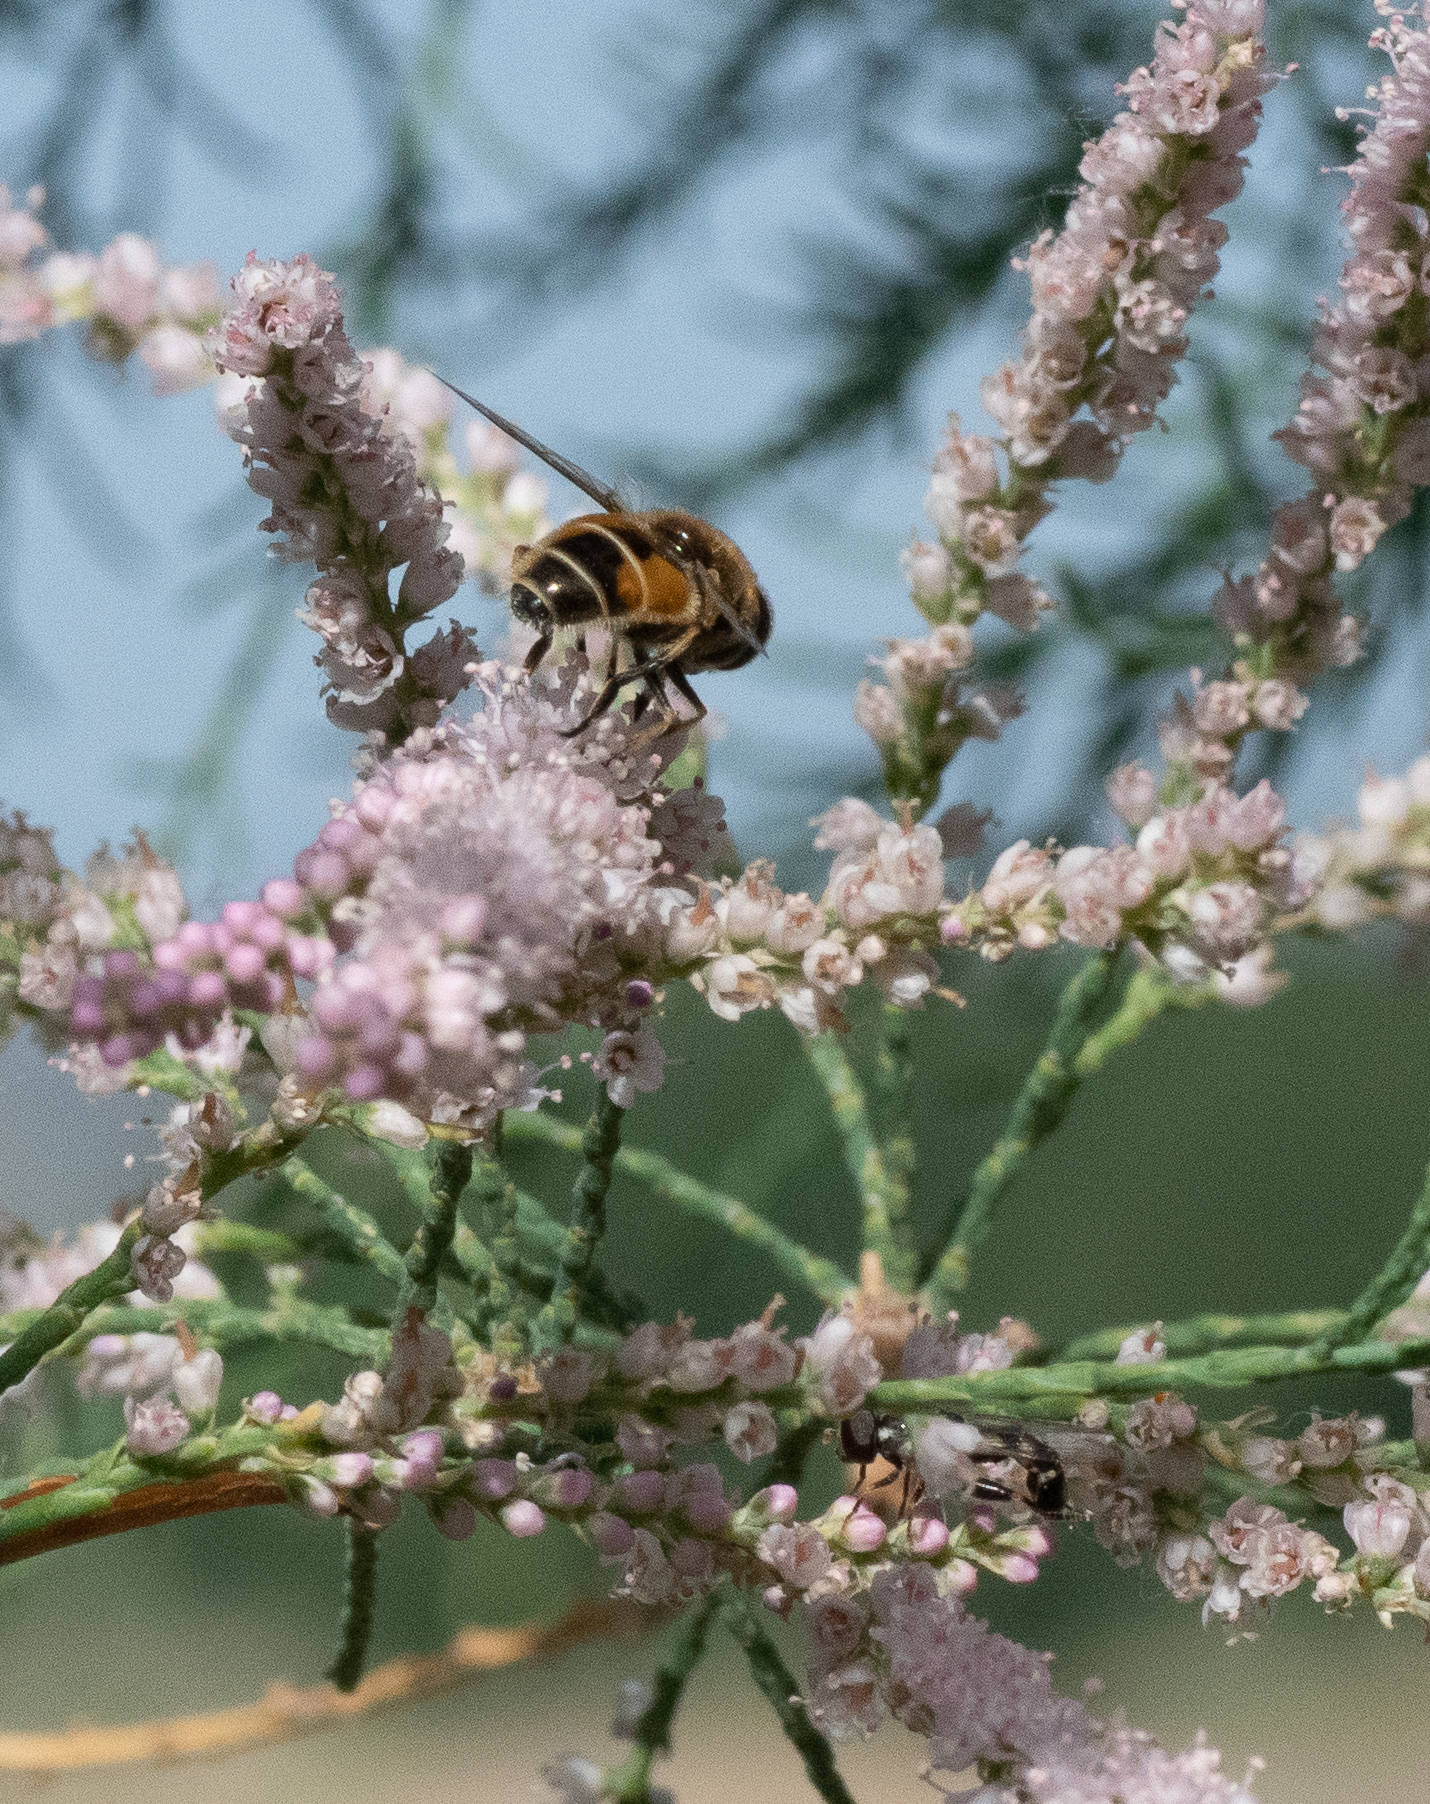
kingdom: Animalia
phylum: Arthropoda
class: Insecta
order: Diptera
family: Syrphidae
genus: Eristalis
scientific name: Eristalis arbustorum
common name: Hover fly
